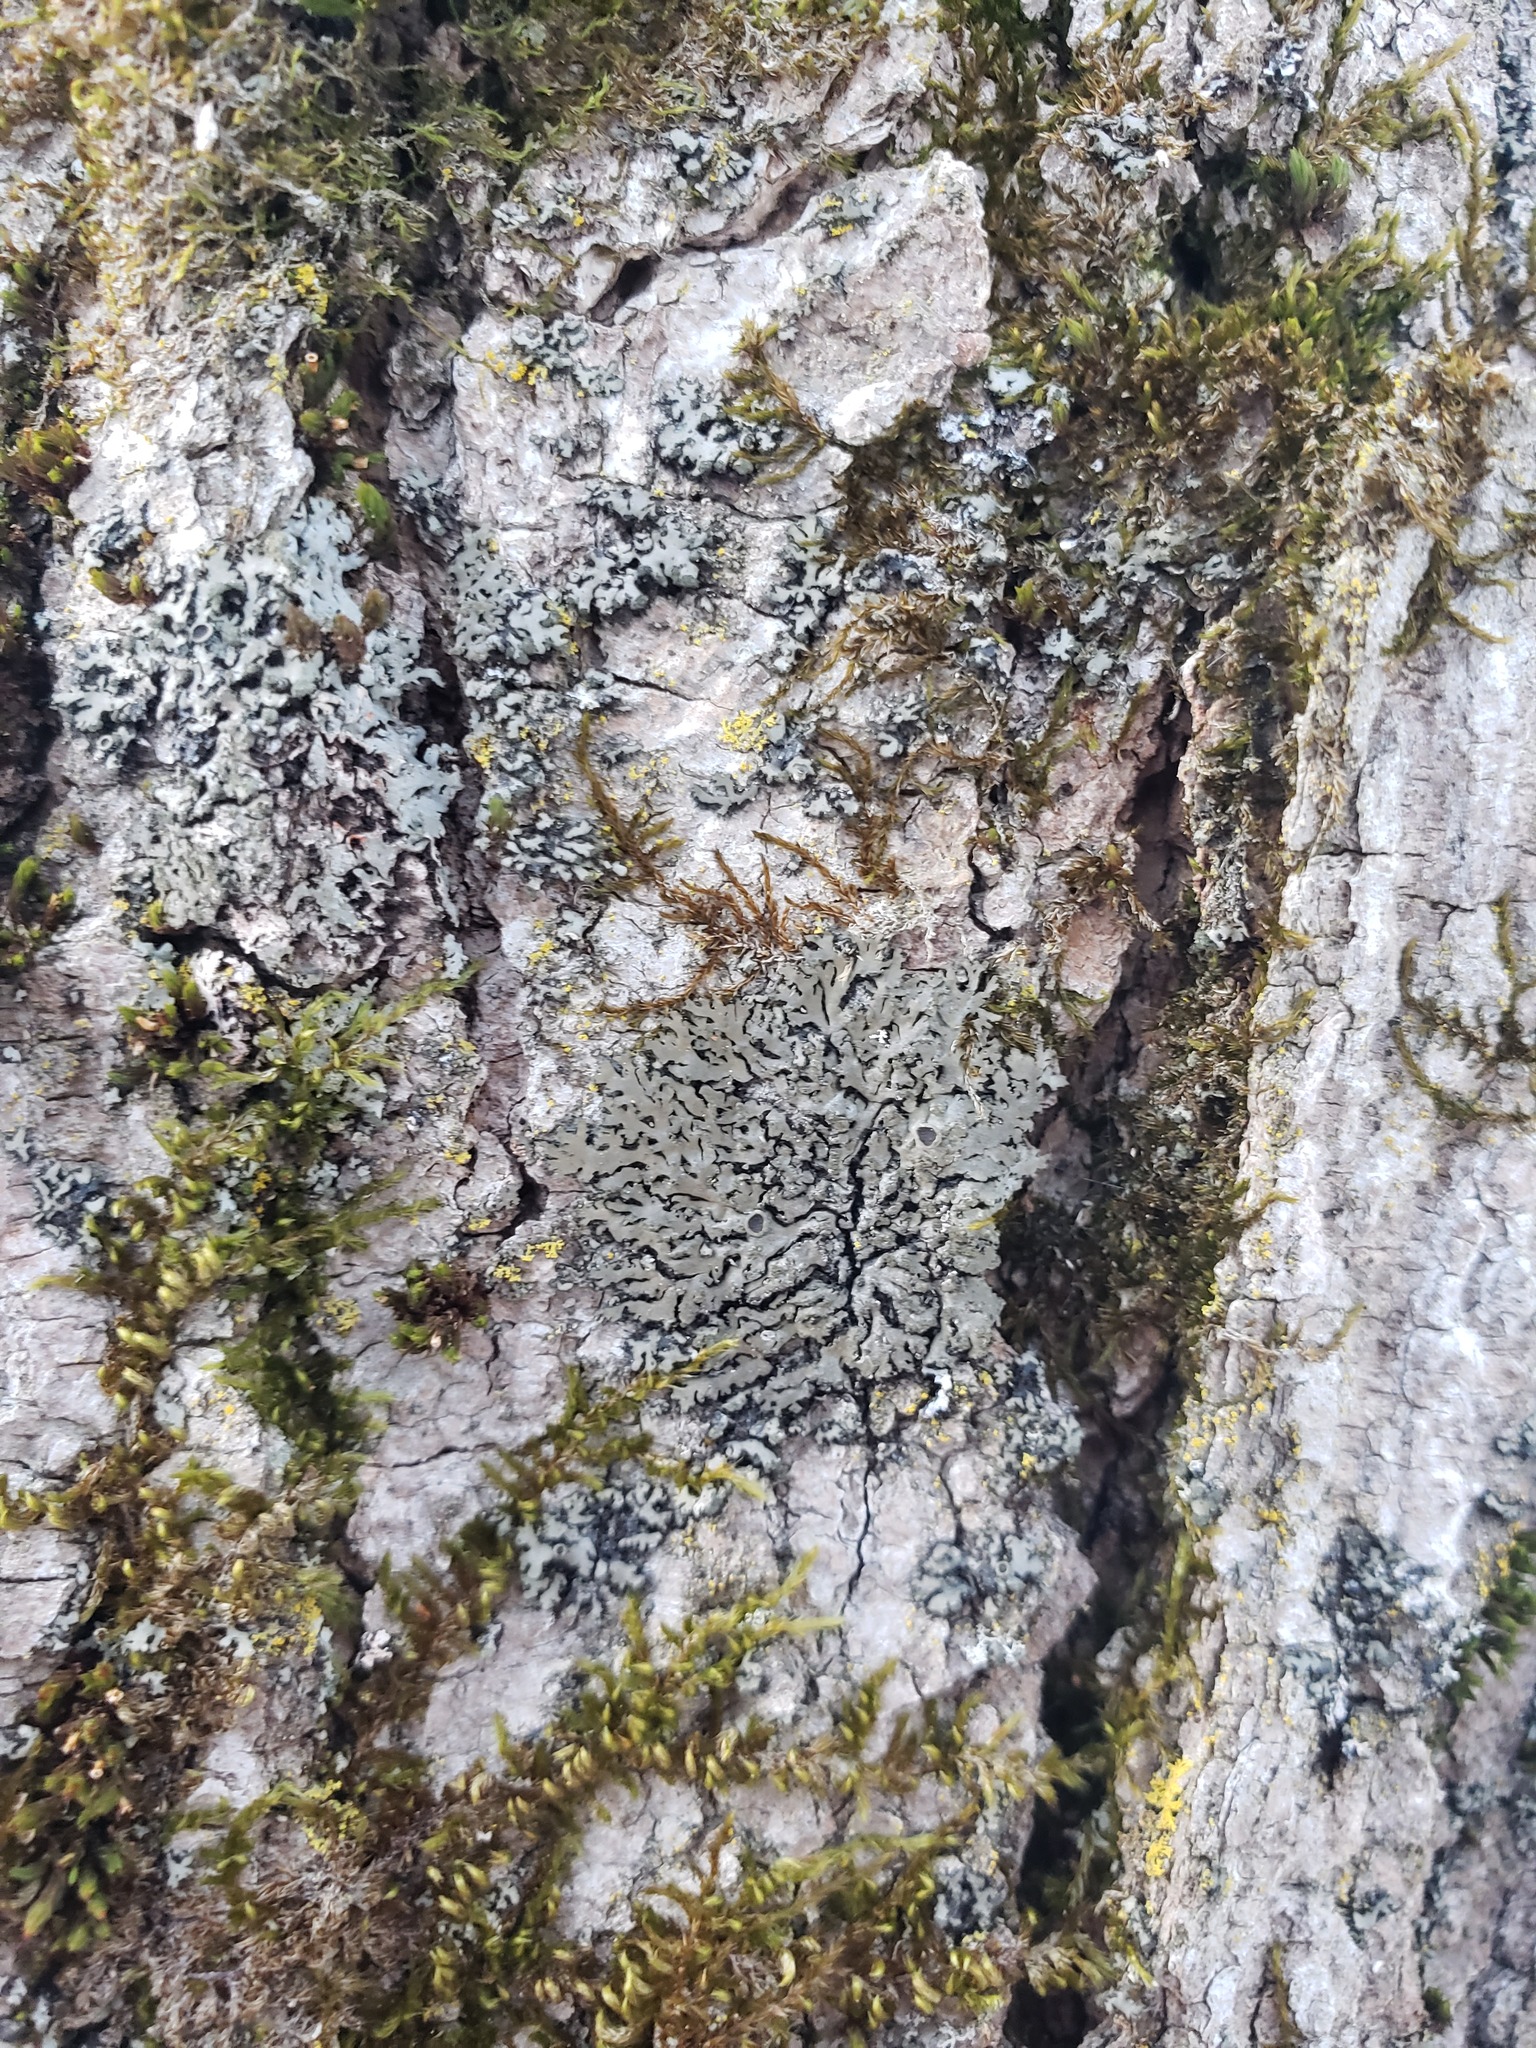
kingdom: Fungi
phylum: Ascomycota
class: Lecanoromycetes
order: Caliciales
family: Physciaceae
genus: Phaeophyscia
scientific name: Phaeophyscia rubropulchra
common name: Orange-cored shadow lichen
